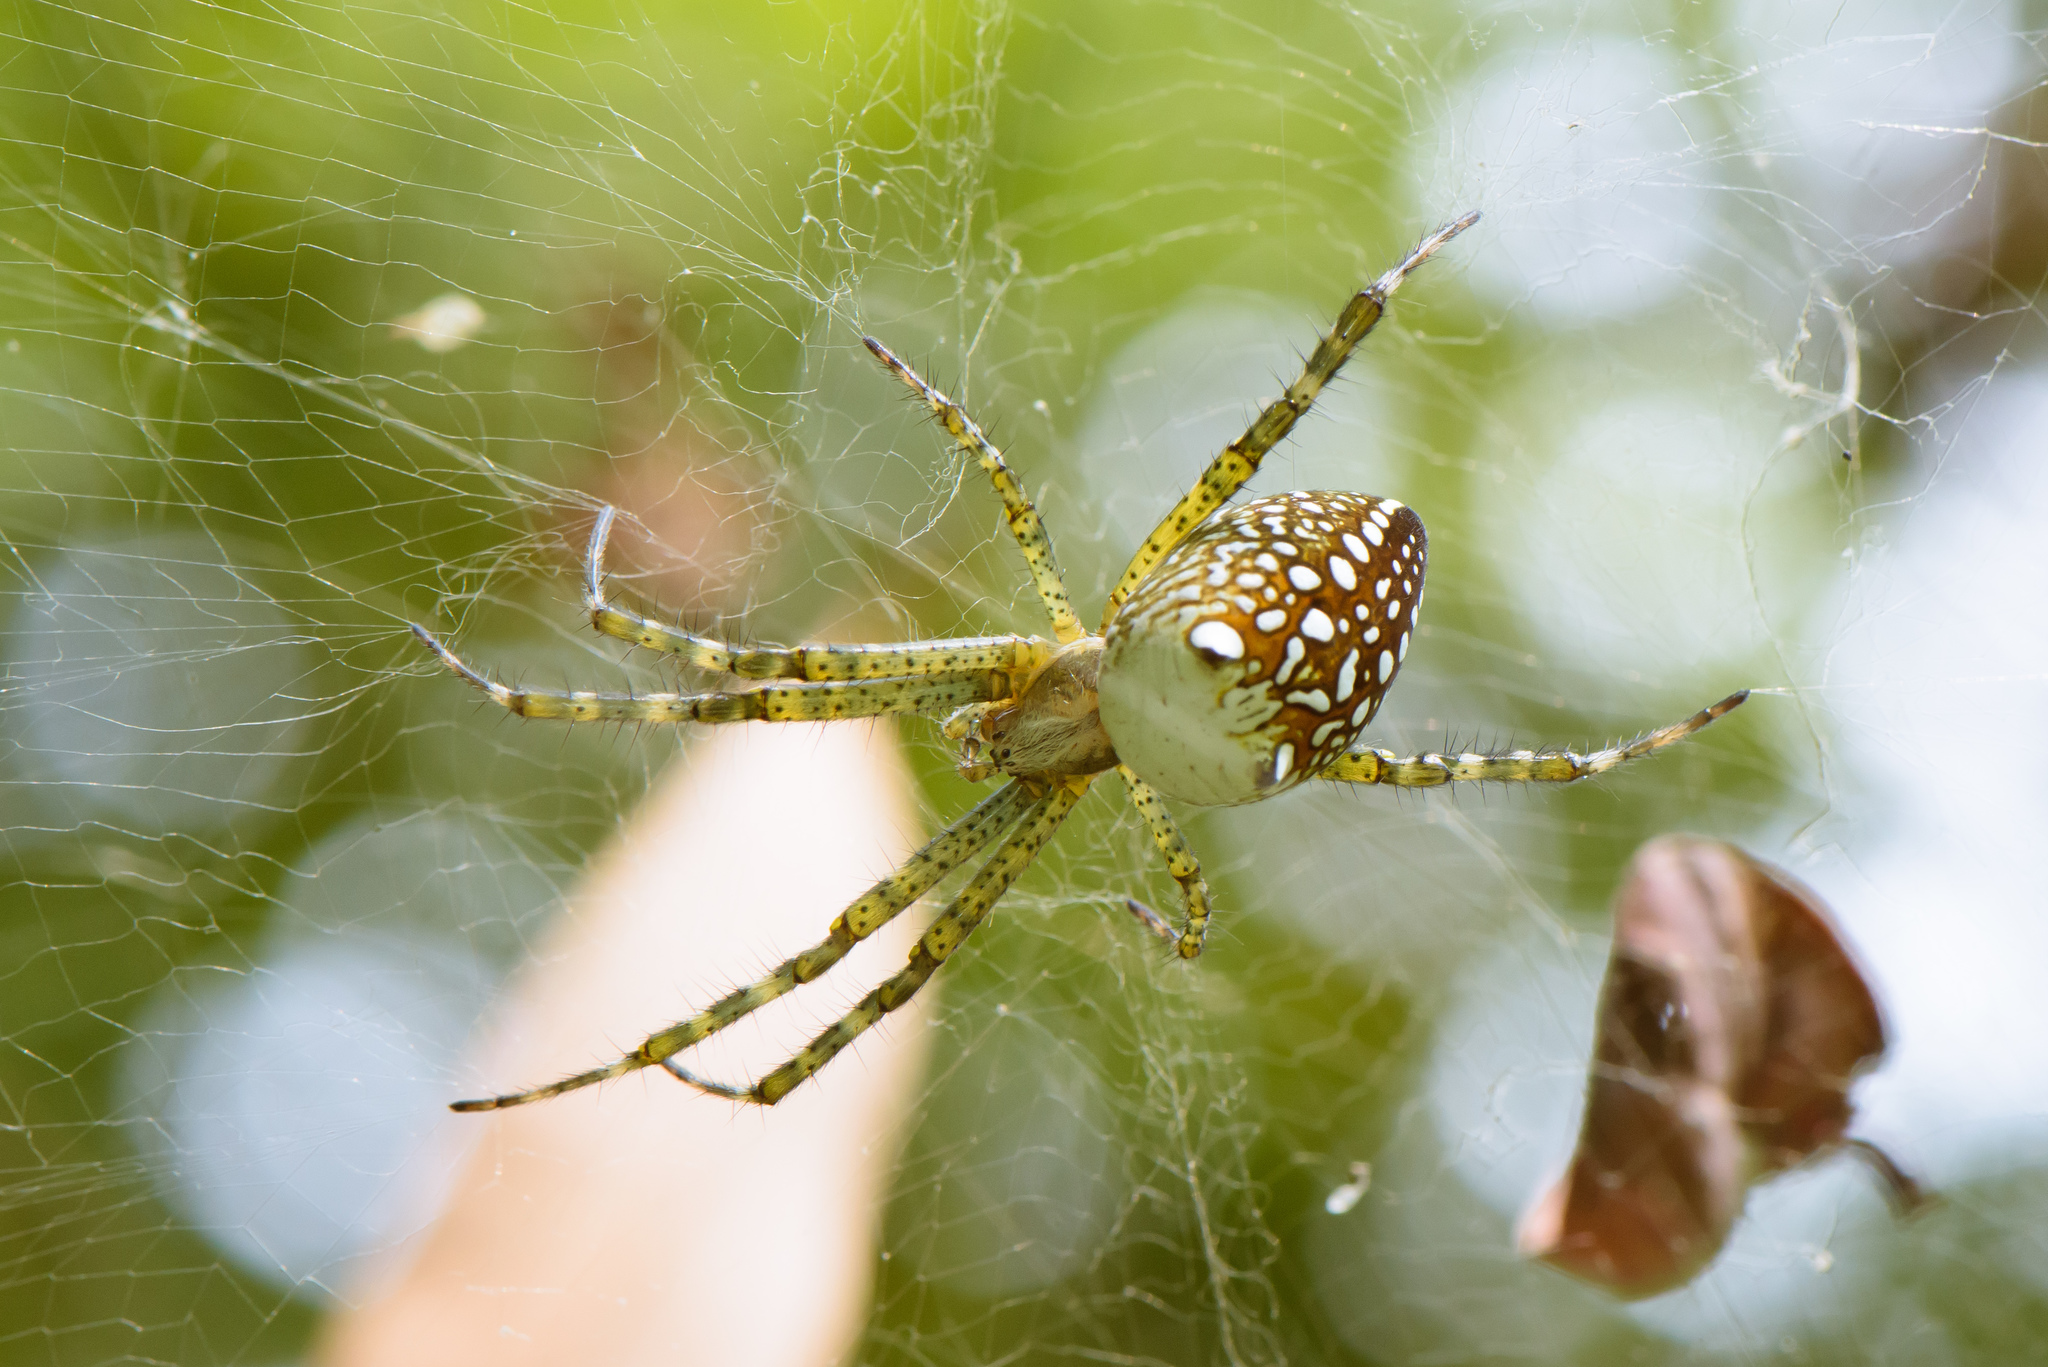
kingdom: Chromista
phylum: Ochrophyta
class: Dictyochophyceae
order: Pedinellales
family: Cyrtophoraceae
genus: Cyrtophora
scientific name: Cyrtophora moluccensis
